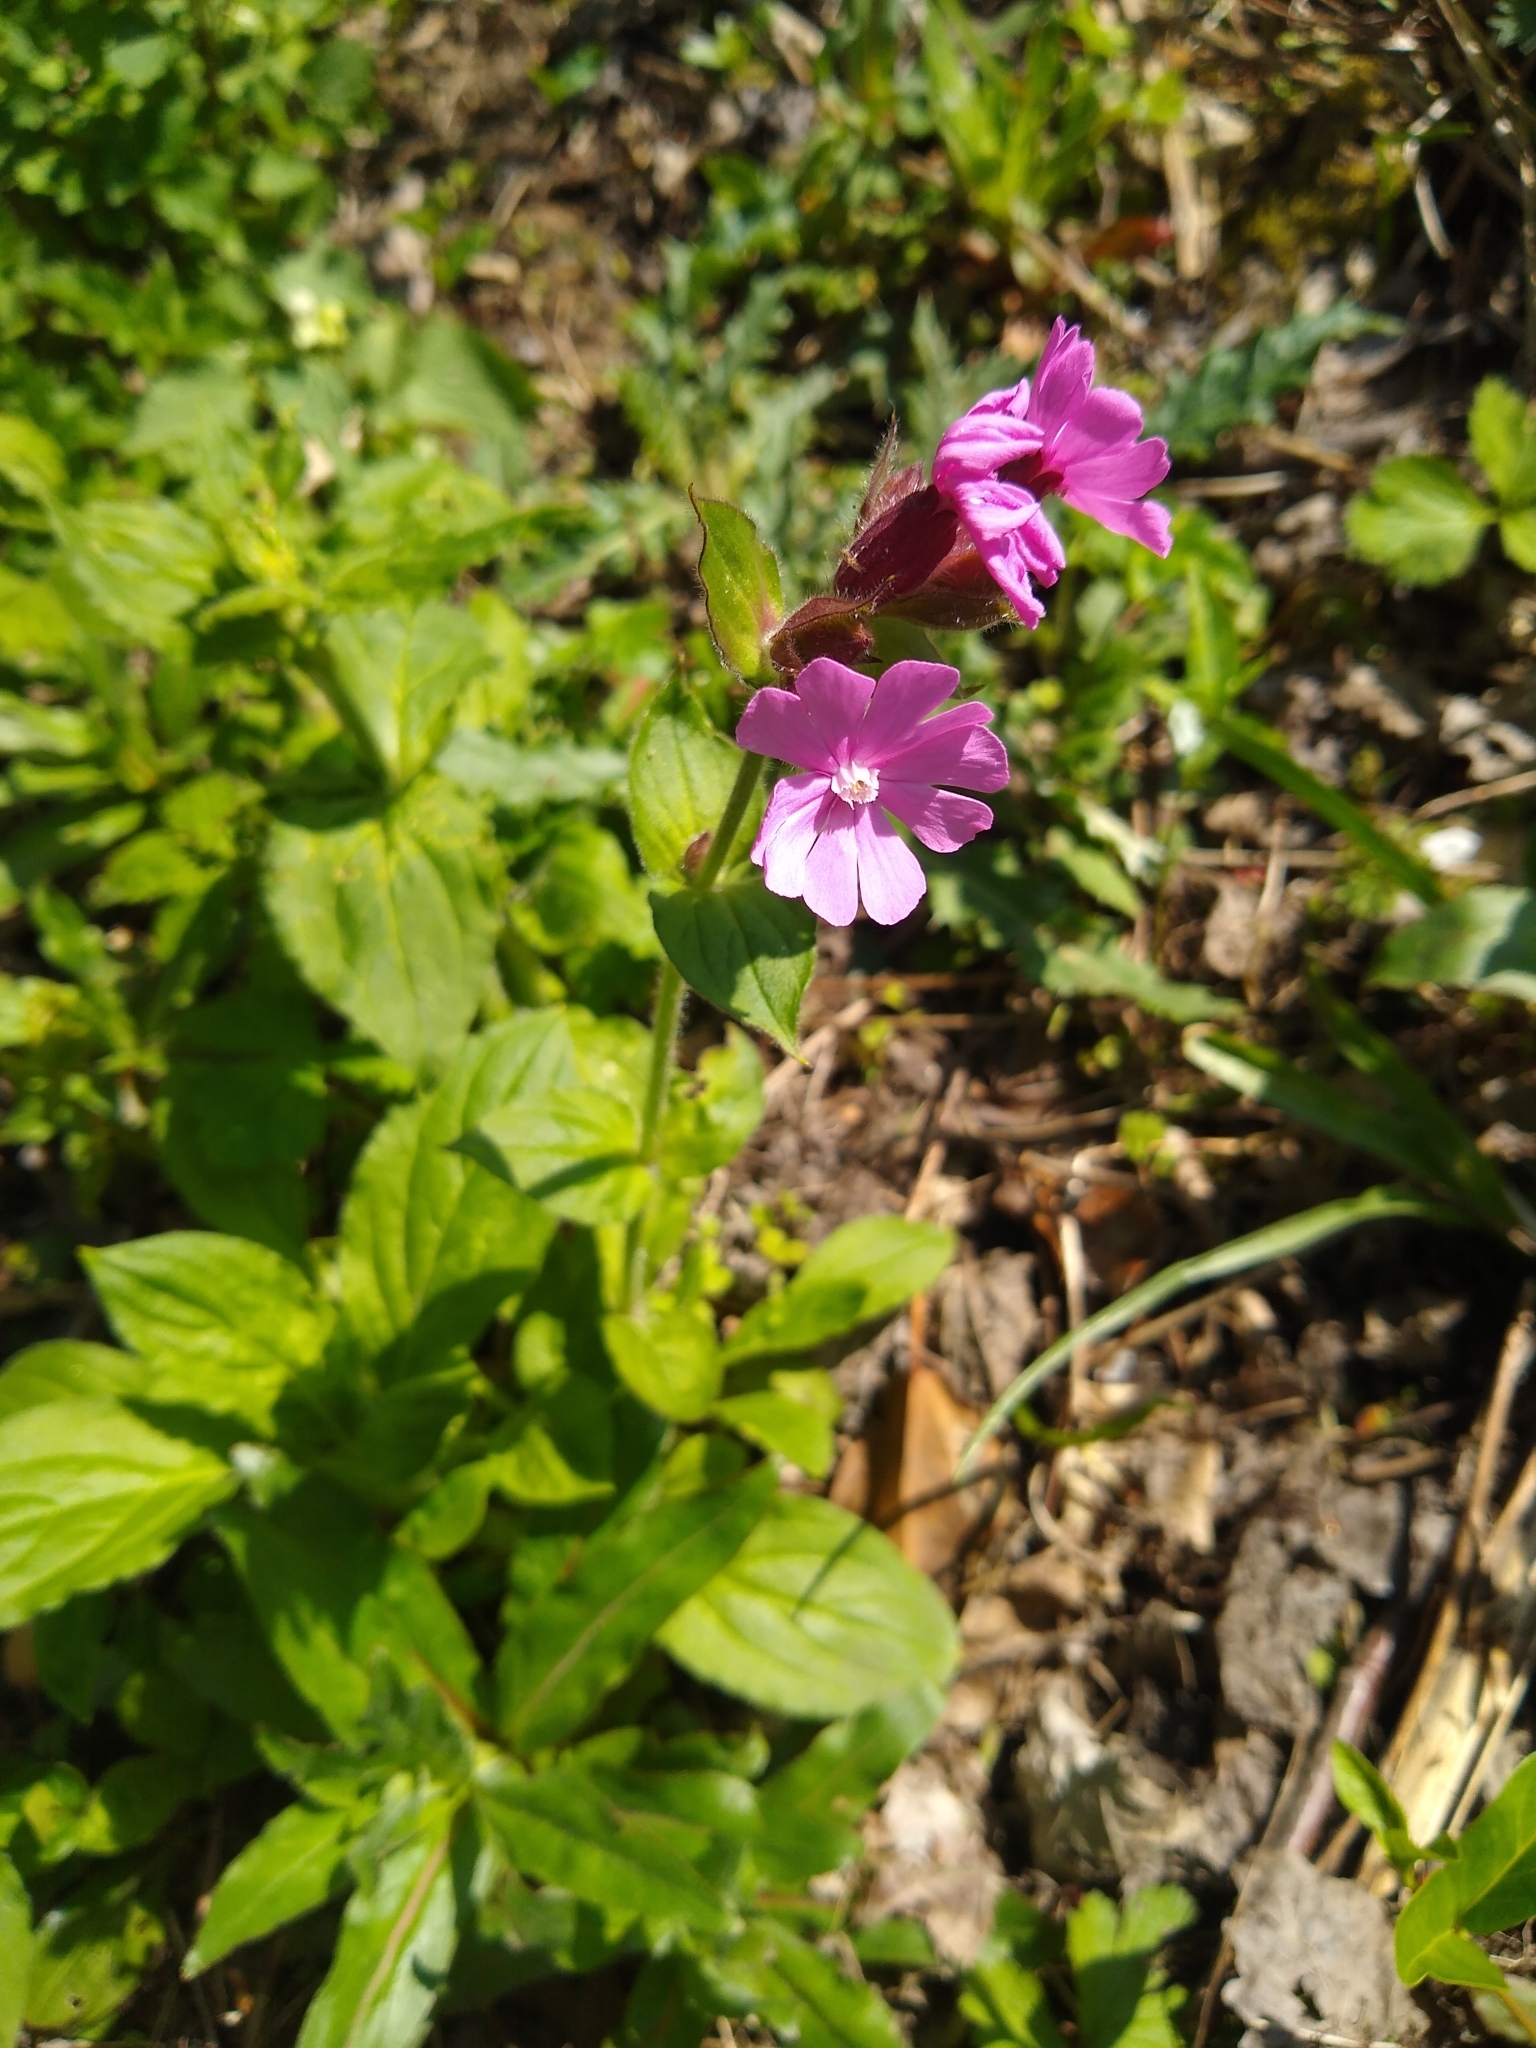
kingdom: Plantae
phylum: Tracheophyta
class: Magnoliopsida
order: Caryophyllales
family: Caryophyllaceae
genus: Silene
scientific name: Silene dioica
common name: Red campion
